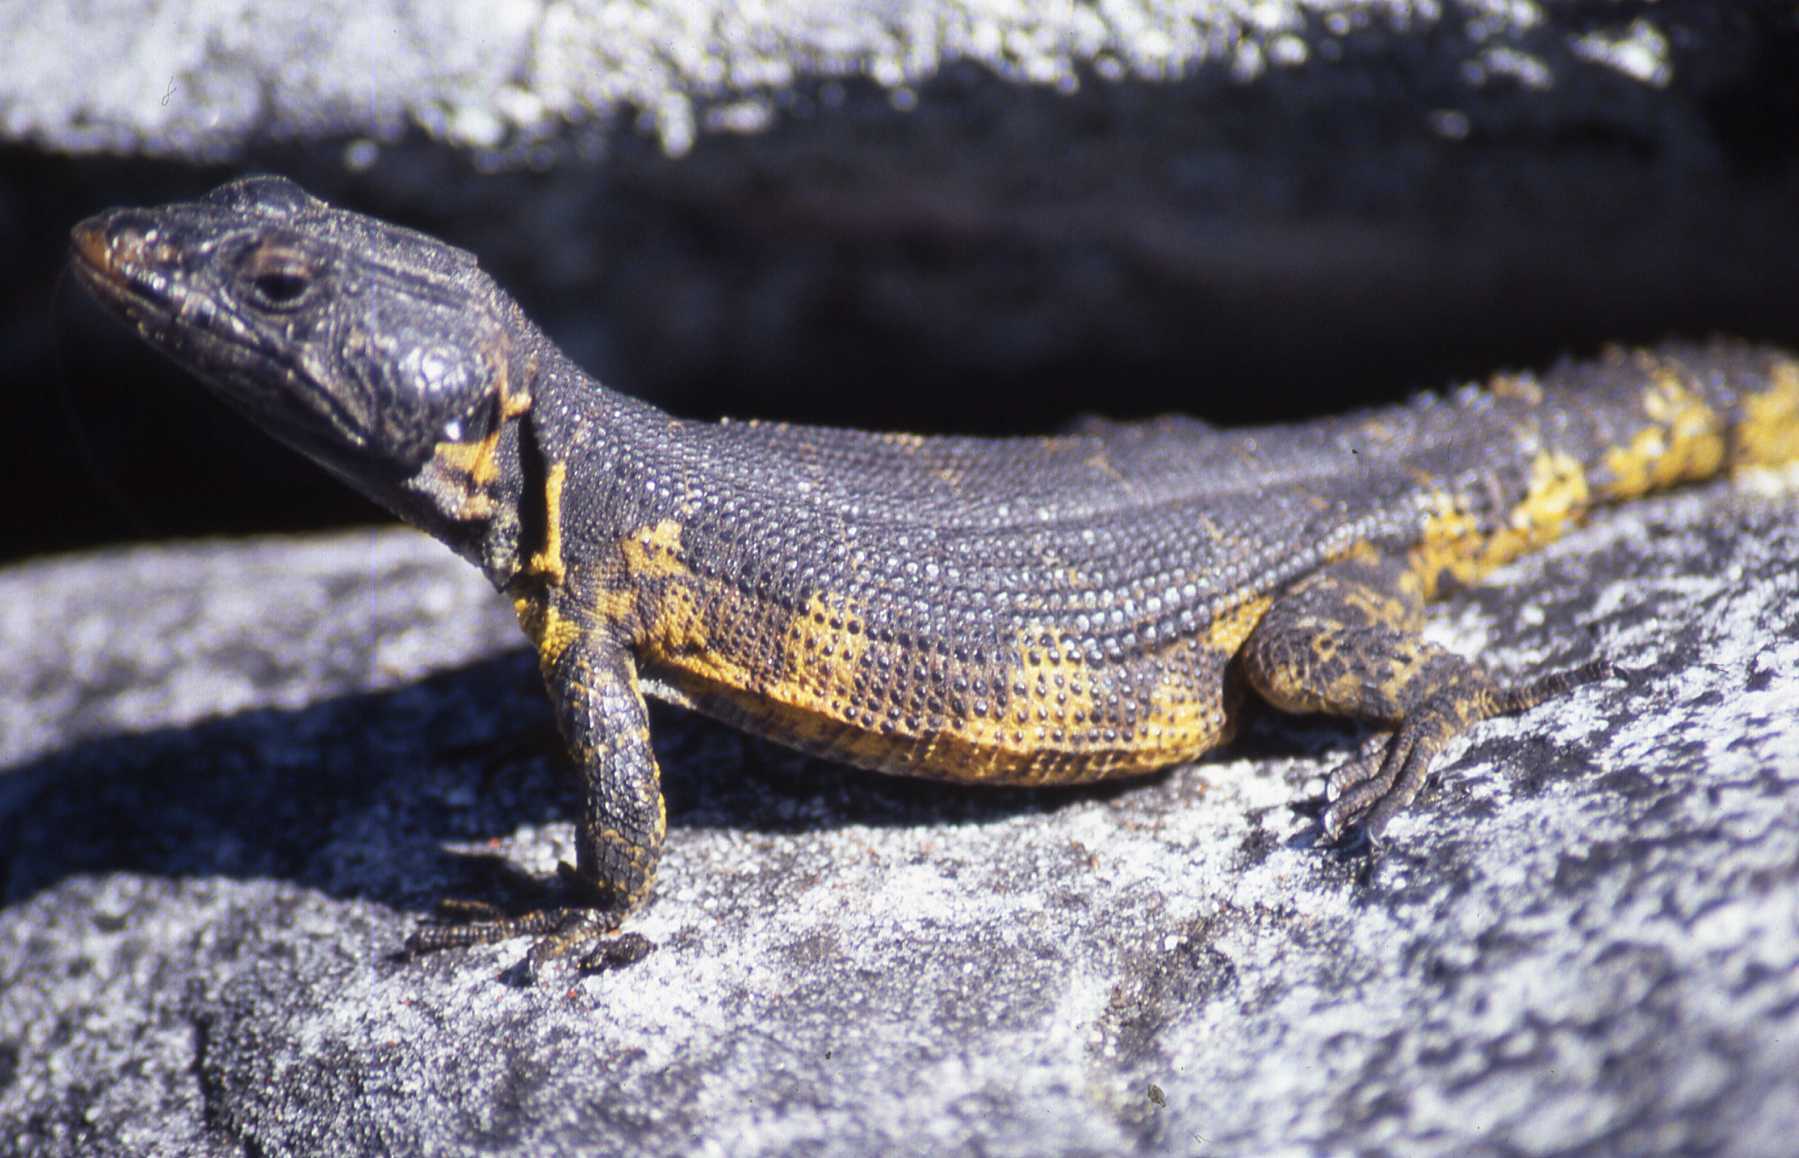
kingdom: Animalia
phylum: Chordata
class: Squamata
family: Cordylidae
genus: Pseudocordylus
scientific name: Pseudocordylus microlepidotus
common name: Cape crag lizard
